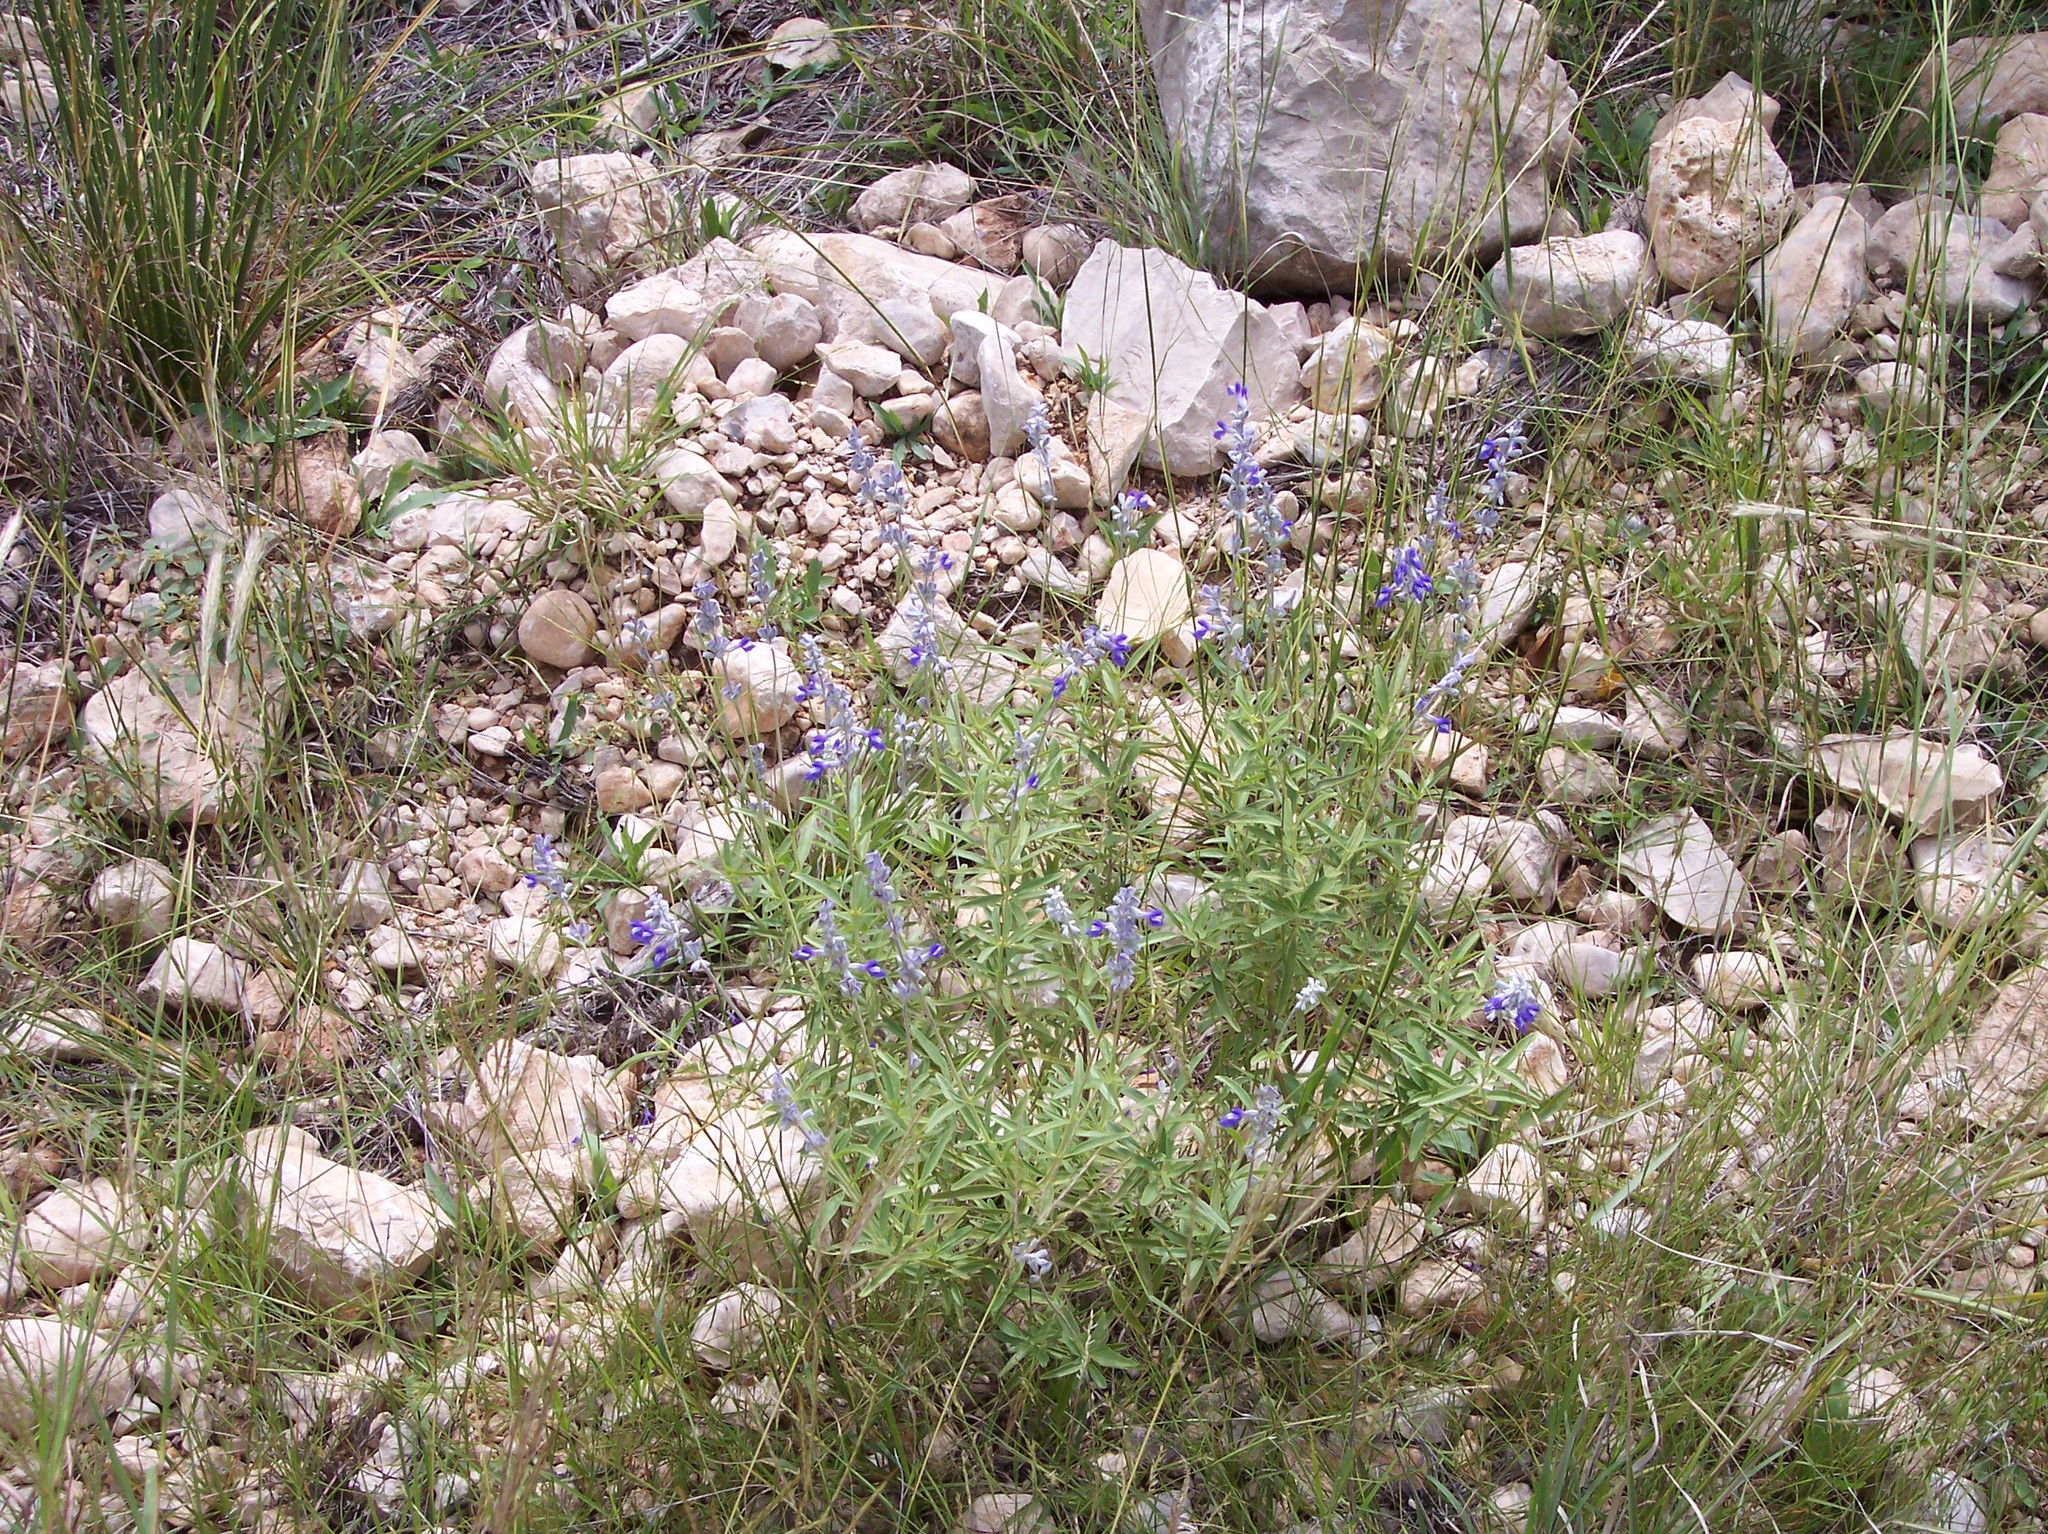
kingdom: Plantae
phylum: Tracheophyta
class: Magnoliopsida
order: Lamiales
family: Lamiaceae
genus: Salvia
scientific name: Salvia farinacea
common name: Mealy sage
